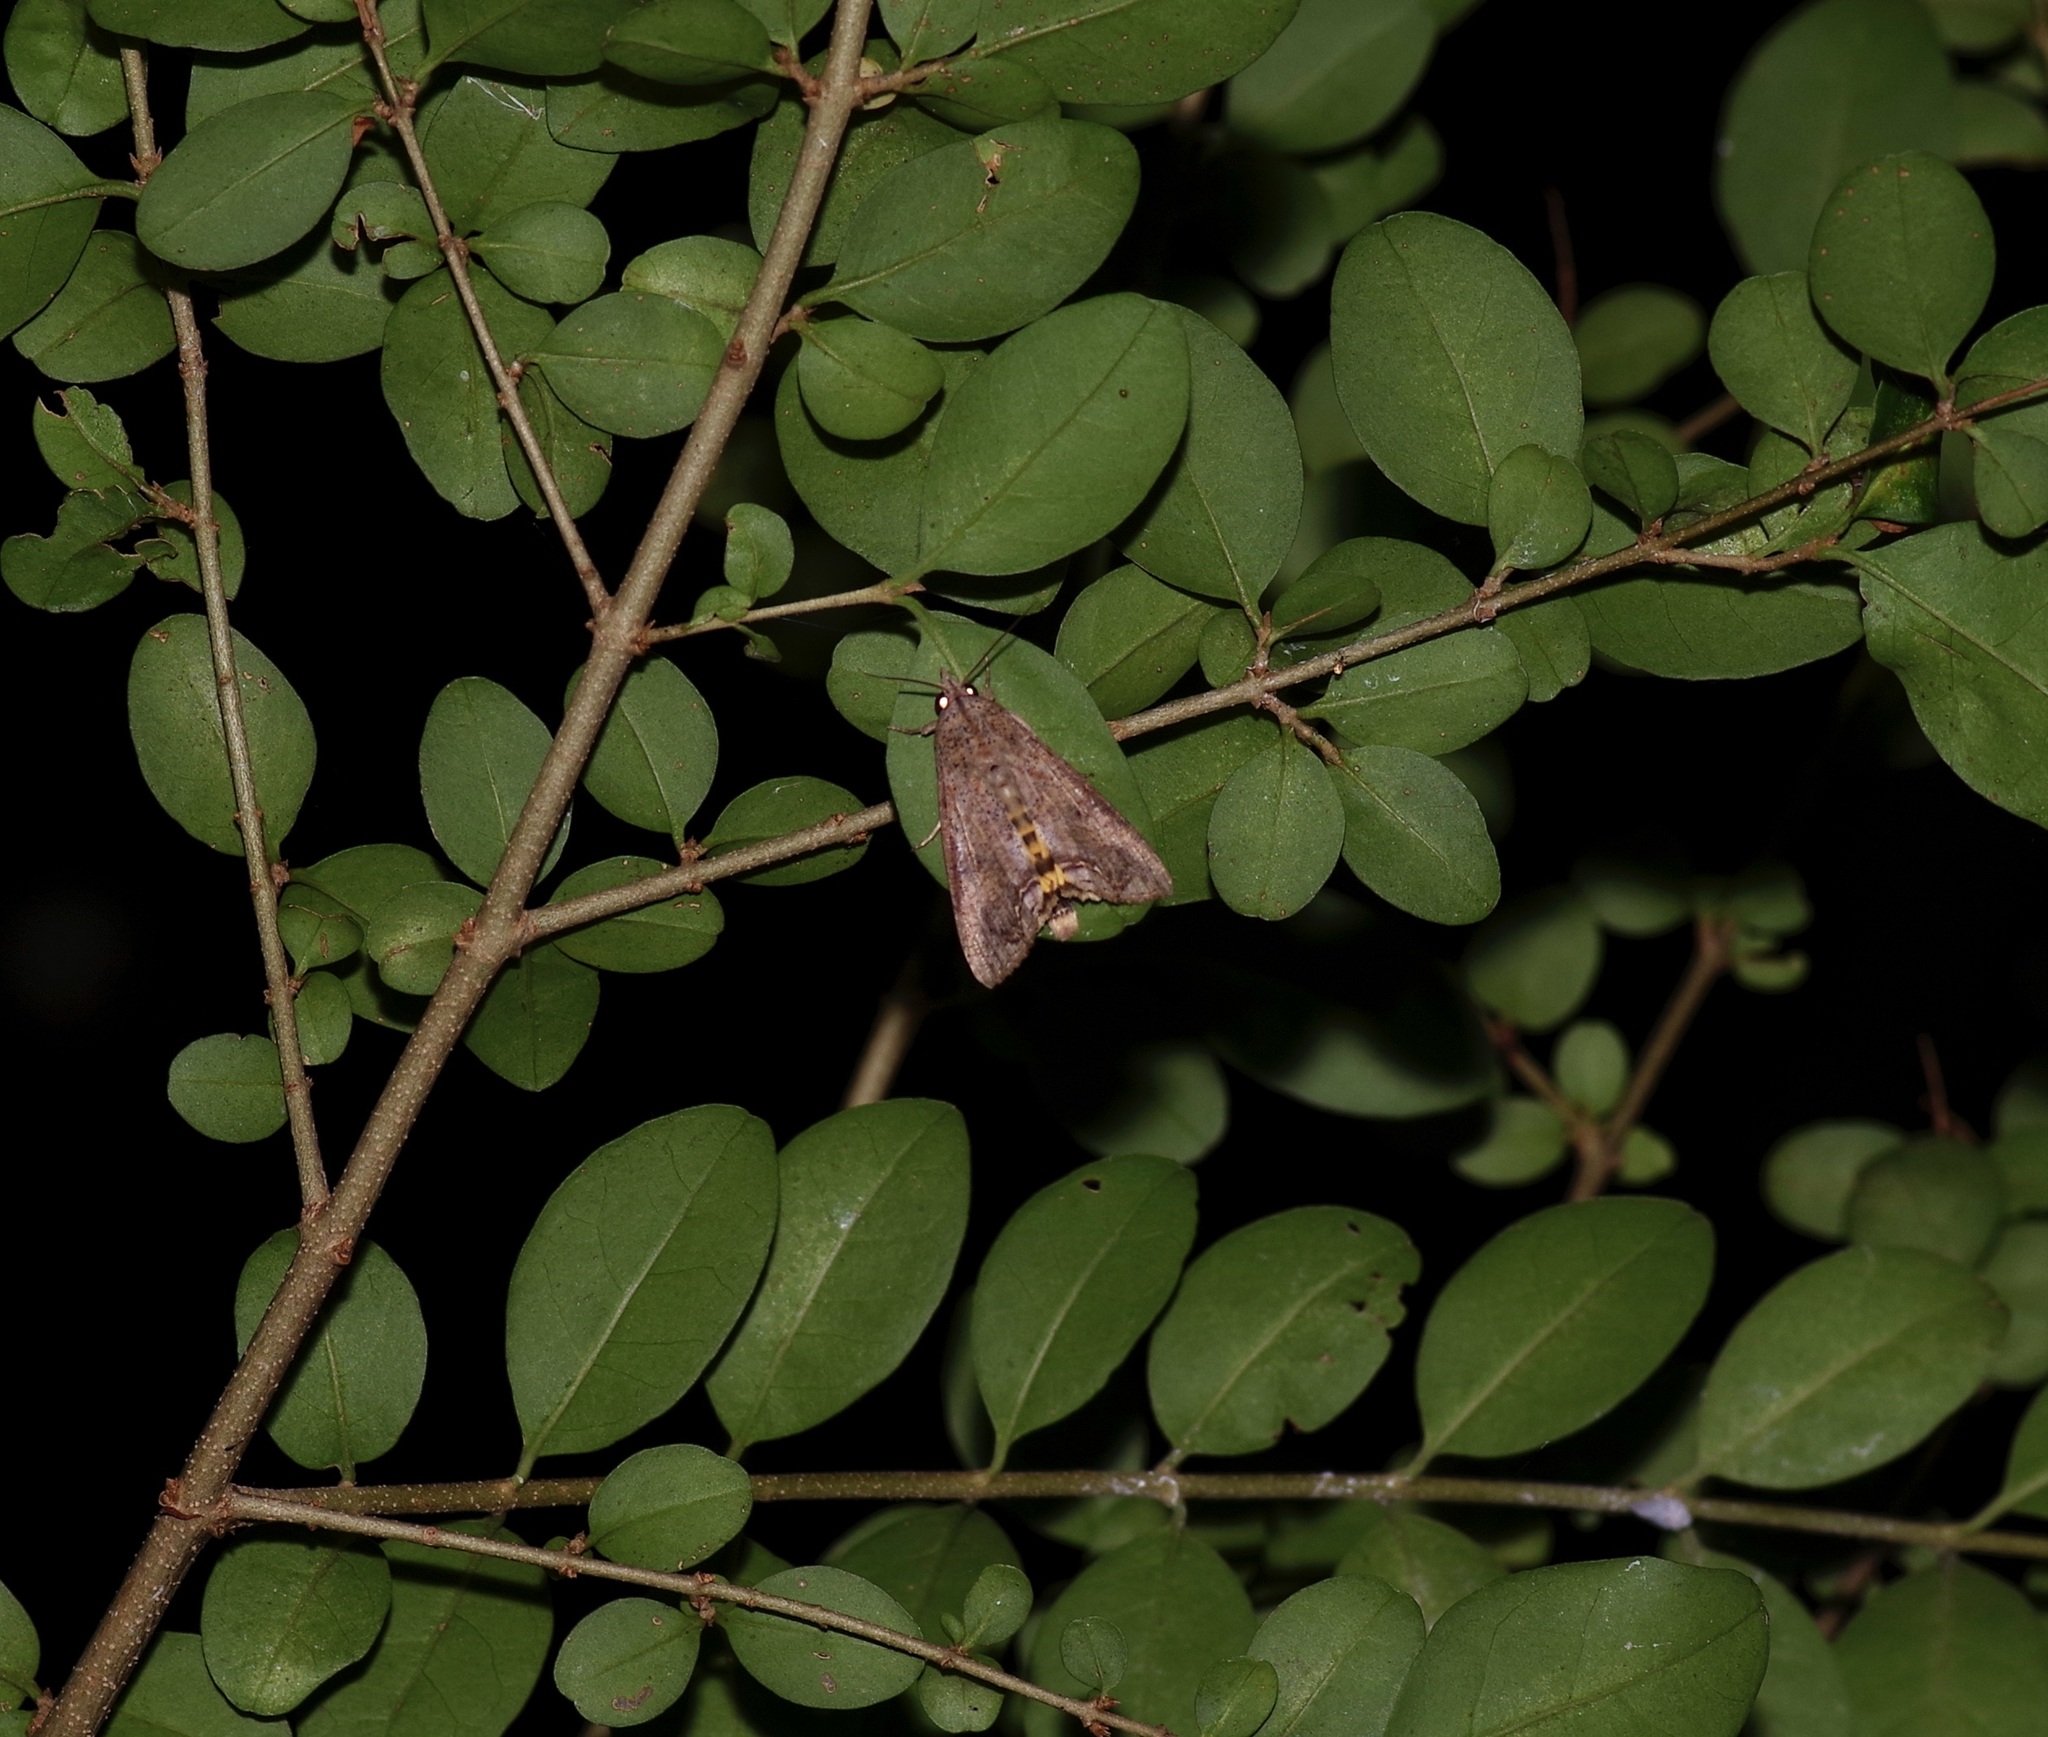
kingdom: Animalia
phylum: Arthropoda
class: Insecta
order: Lepidoptera
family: Erebidae
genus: Hypocala
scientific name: Hypocala andremona
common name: Hypocala moth
